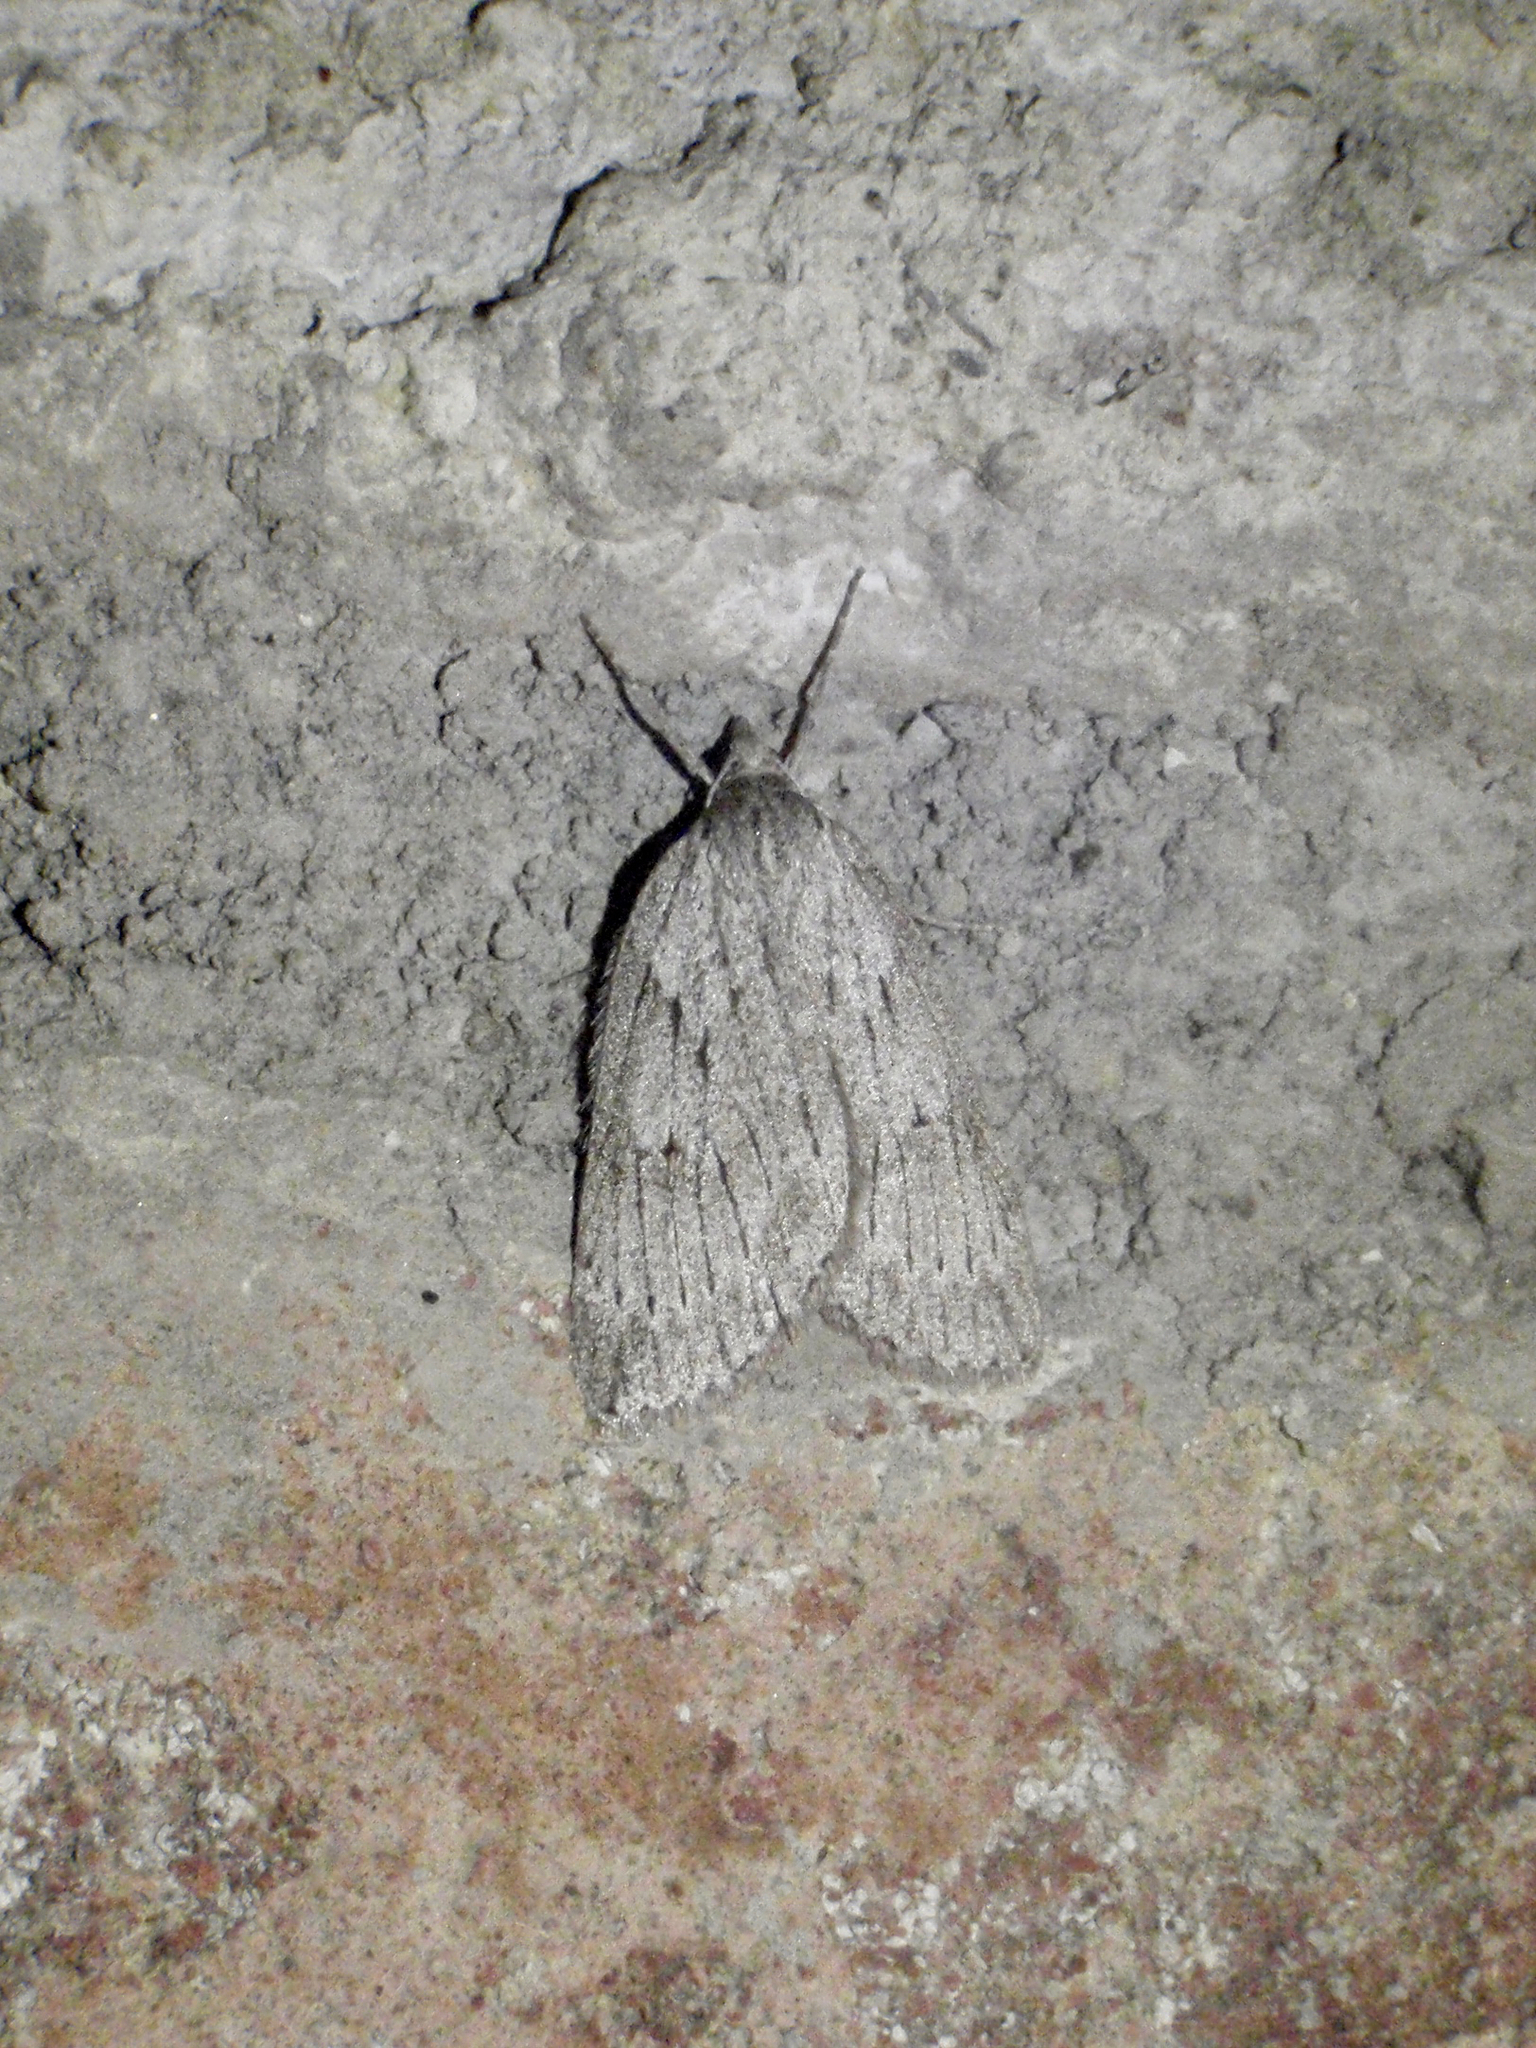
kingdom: Animalia
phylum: Arthropoda
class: Insecta
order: Lepidoptera
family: Geometridae
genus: Pachycnemia
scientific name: Pachycnemia hippocastanaria
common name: Horse chestnut
